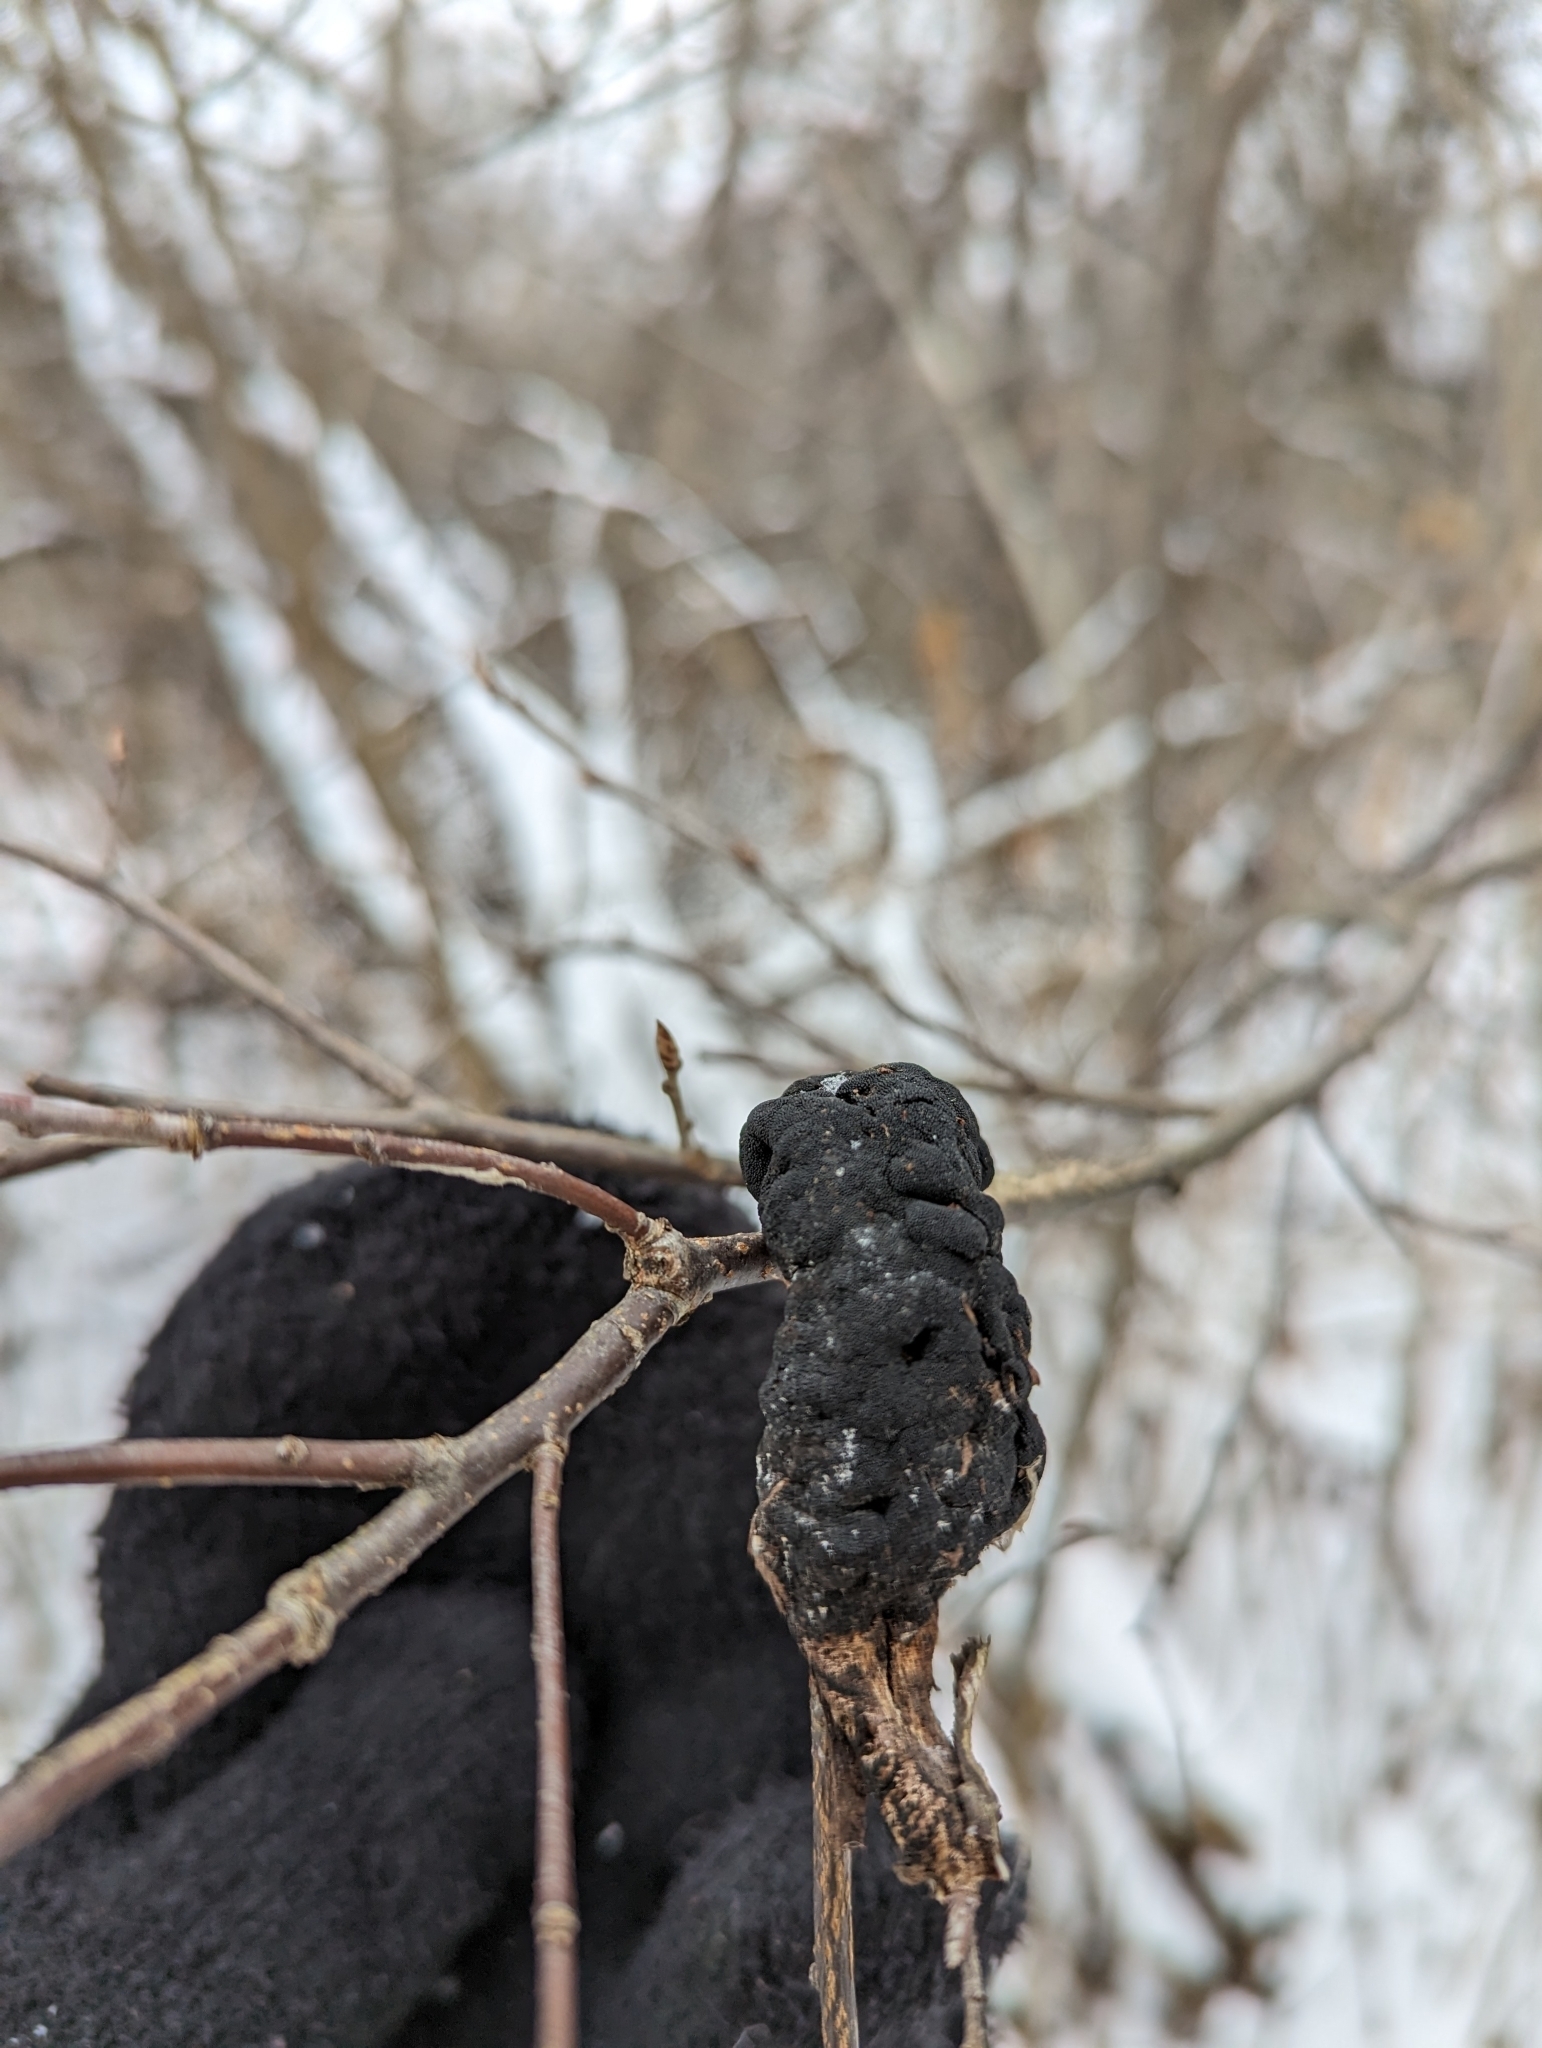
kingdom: Fungi
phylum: Ascomycota
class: Dothideomycetes
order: Venturiales
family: Venturiaceae
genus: Apiosporina
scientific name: Apiosporina morbosa
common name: Black knot
